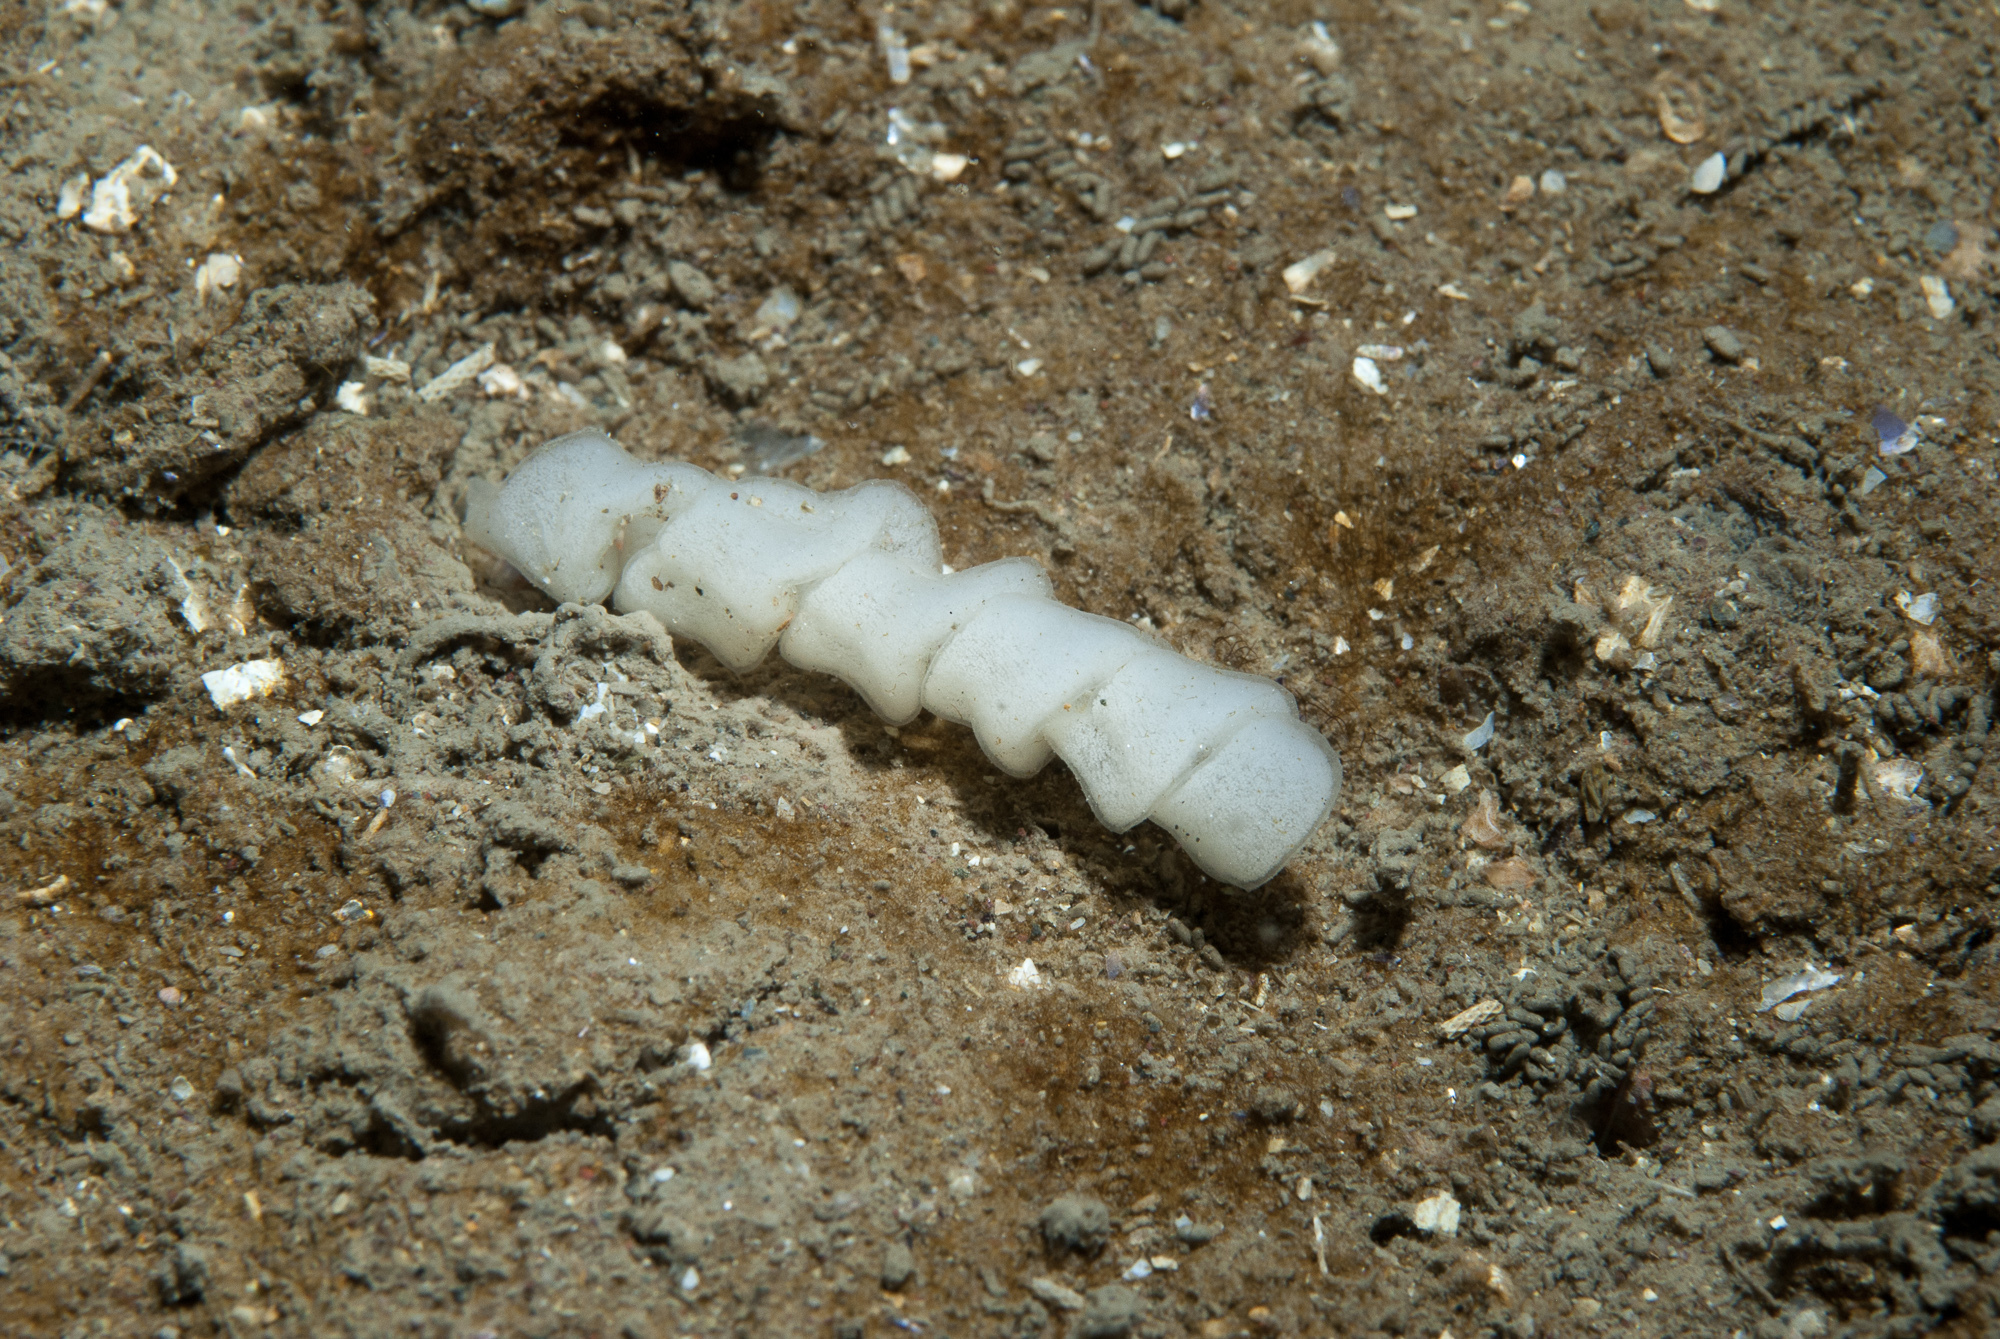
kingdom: Animalia
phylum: Mollusca
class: Gastropoda
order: Nudibranchia
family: Goniodorididae
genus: Okenia
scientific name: Okenia aspersa
